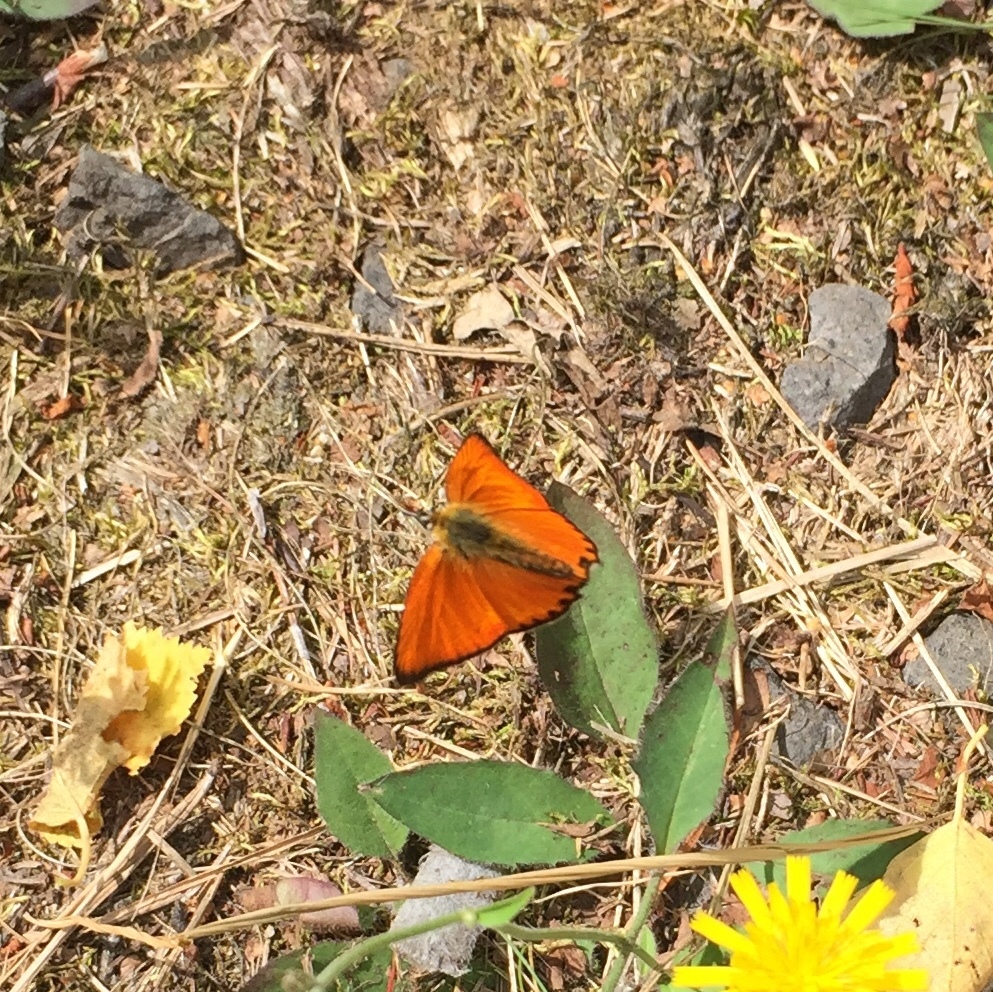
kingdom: Animalia
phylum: Arthropoda
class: Insecta
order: Lepidoptera
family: Lycaenidae
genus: Lycaena
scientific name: Lycaena virgaureae
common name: Scarce copper
